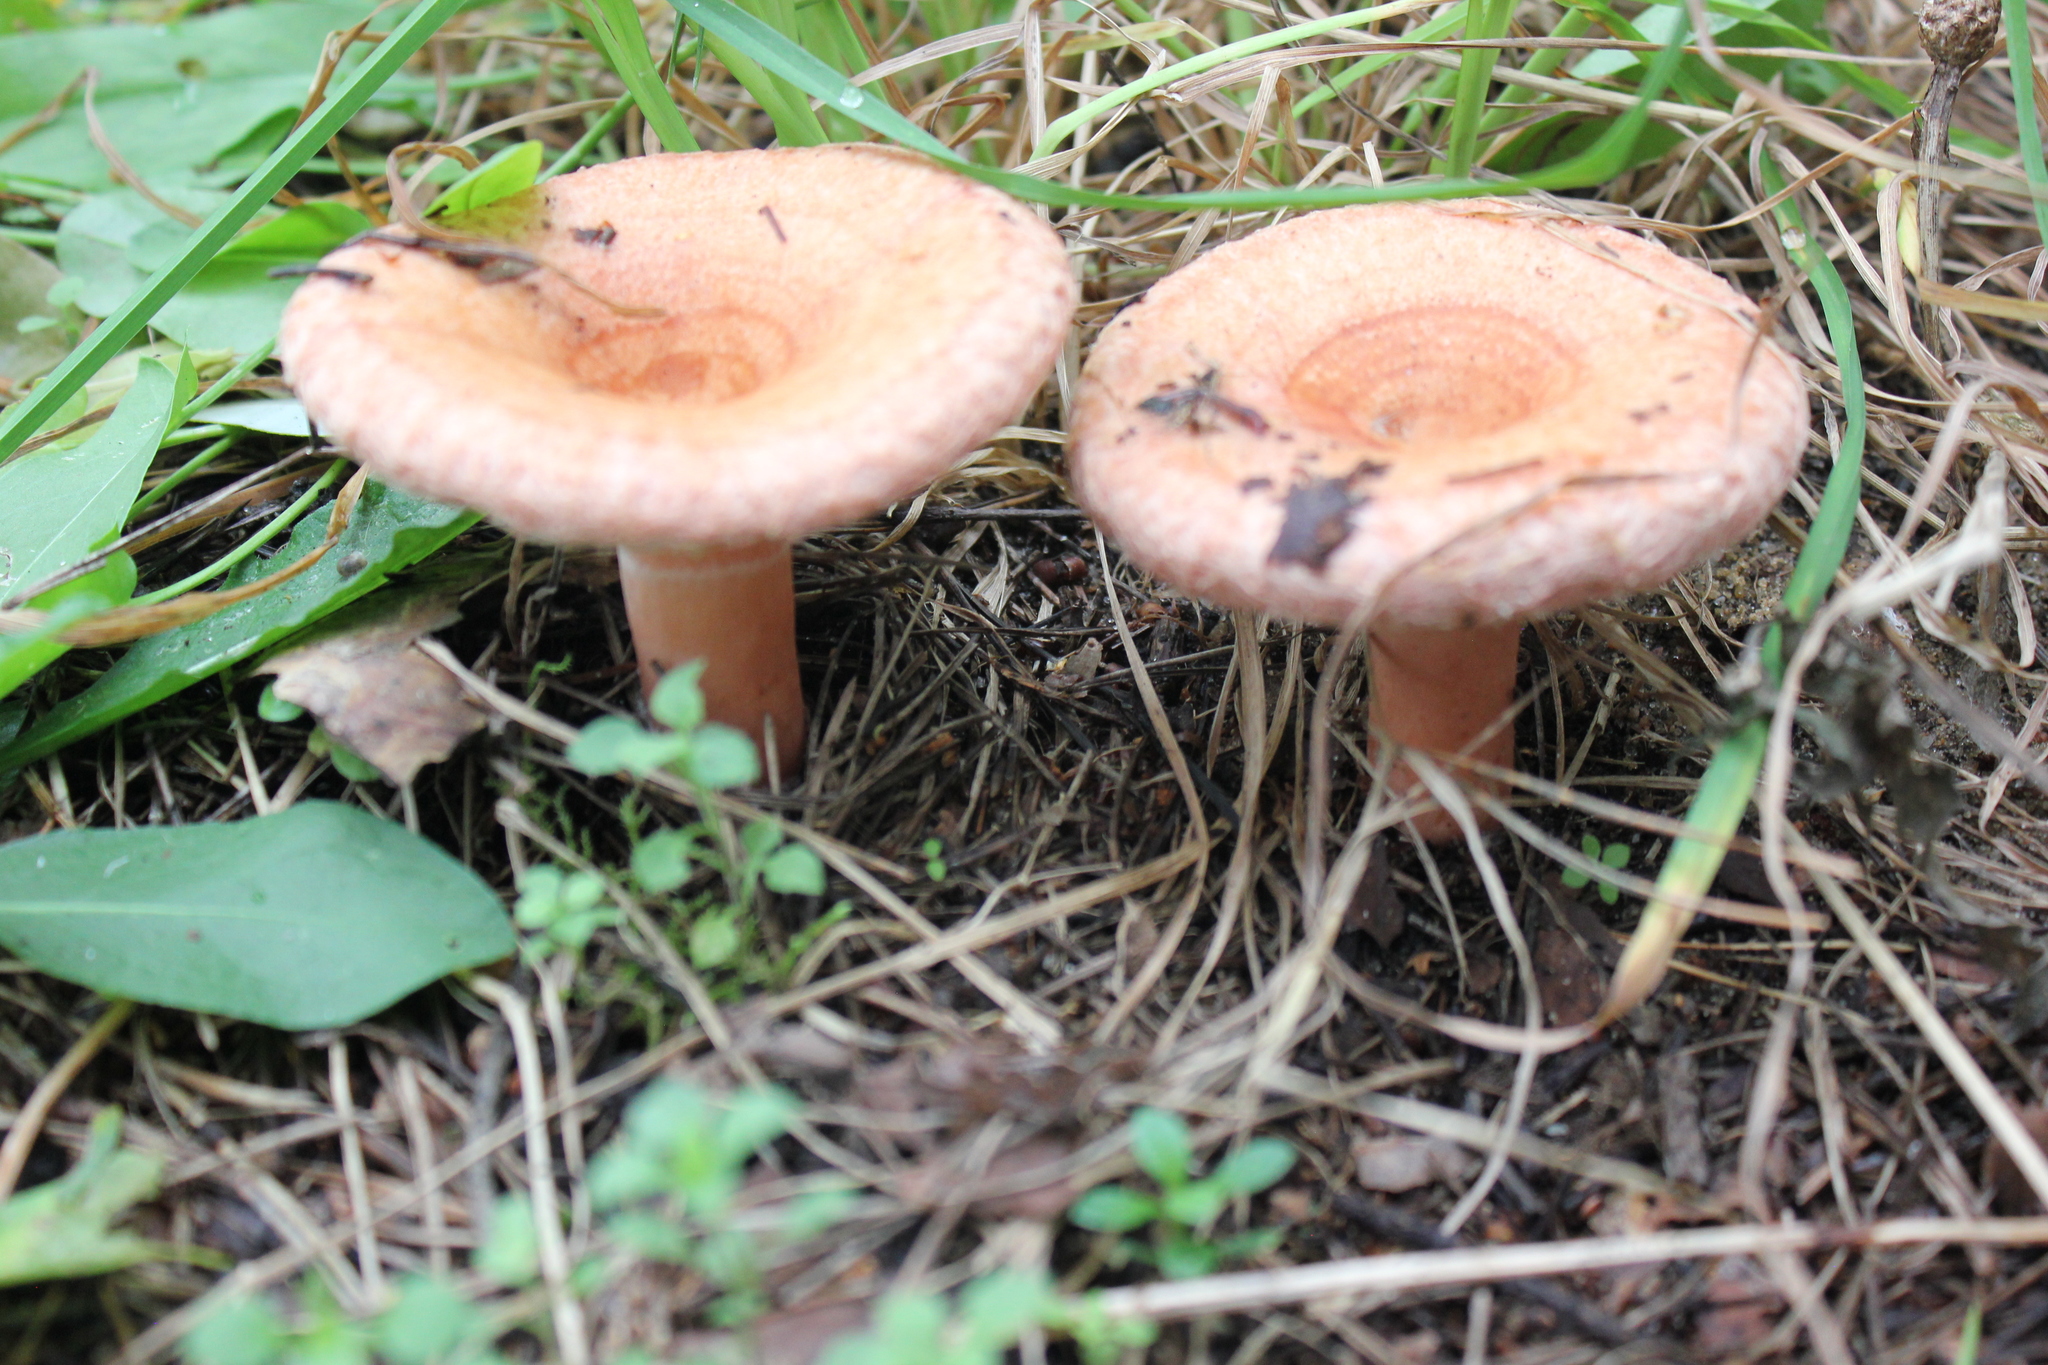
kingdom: Fungi
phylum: Basidiomycota
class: Agaricomycetes
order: Russulales
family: Russulaceae
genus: Lactarius
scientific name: Lactarius torminosus
